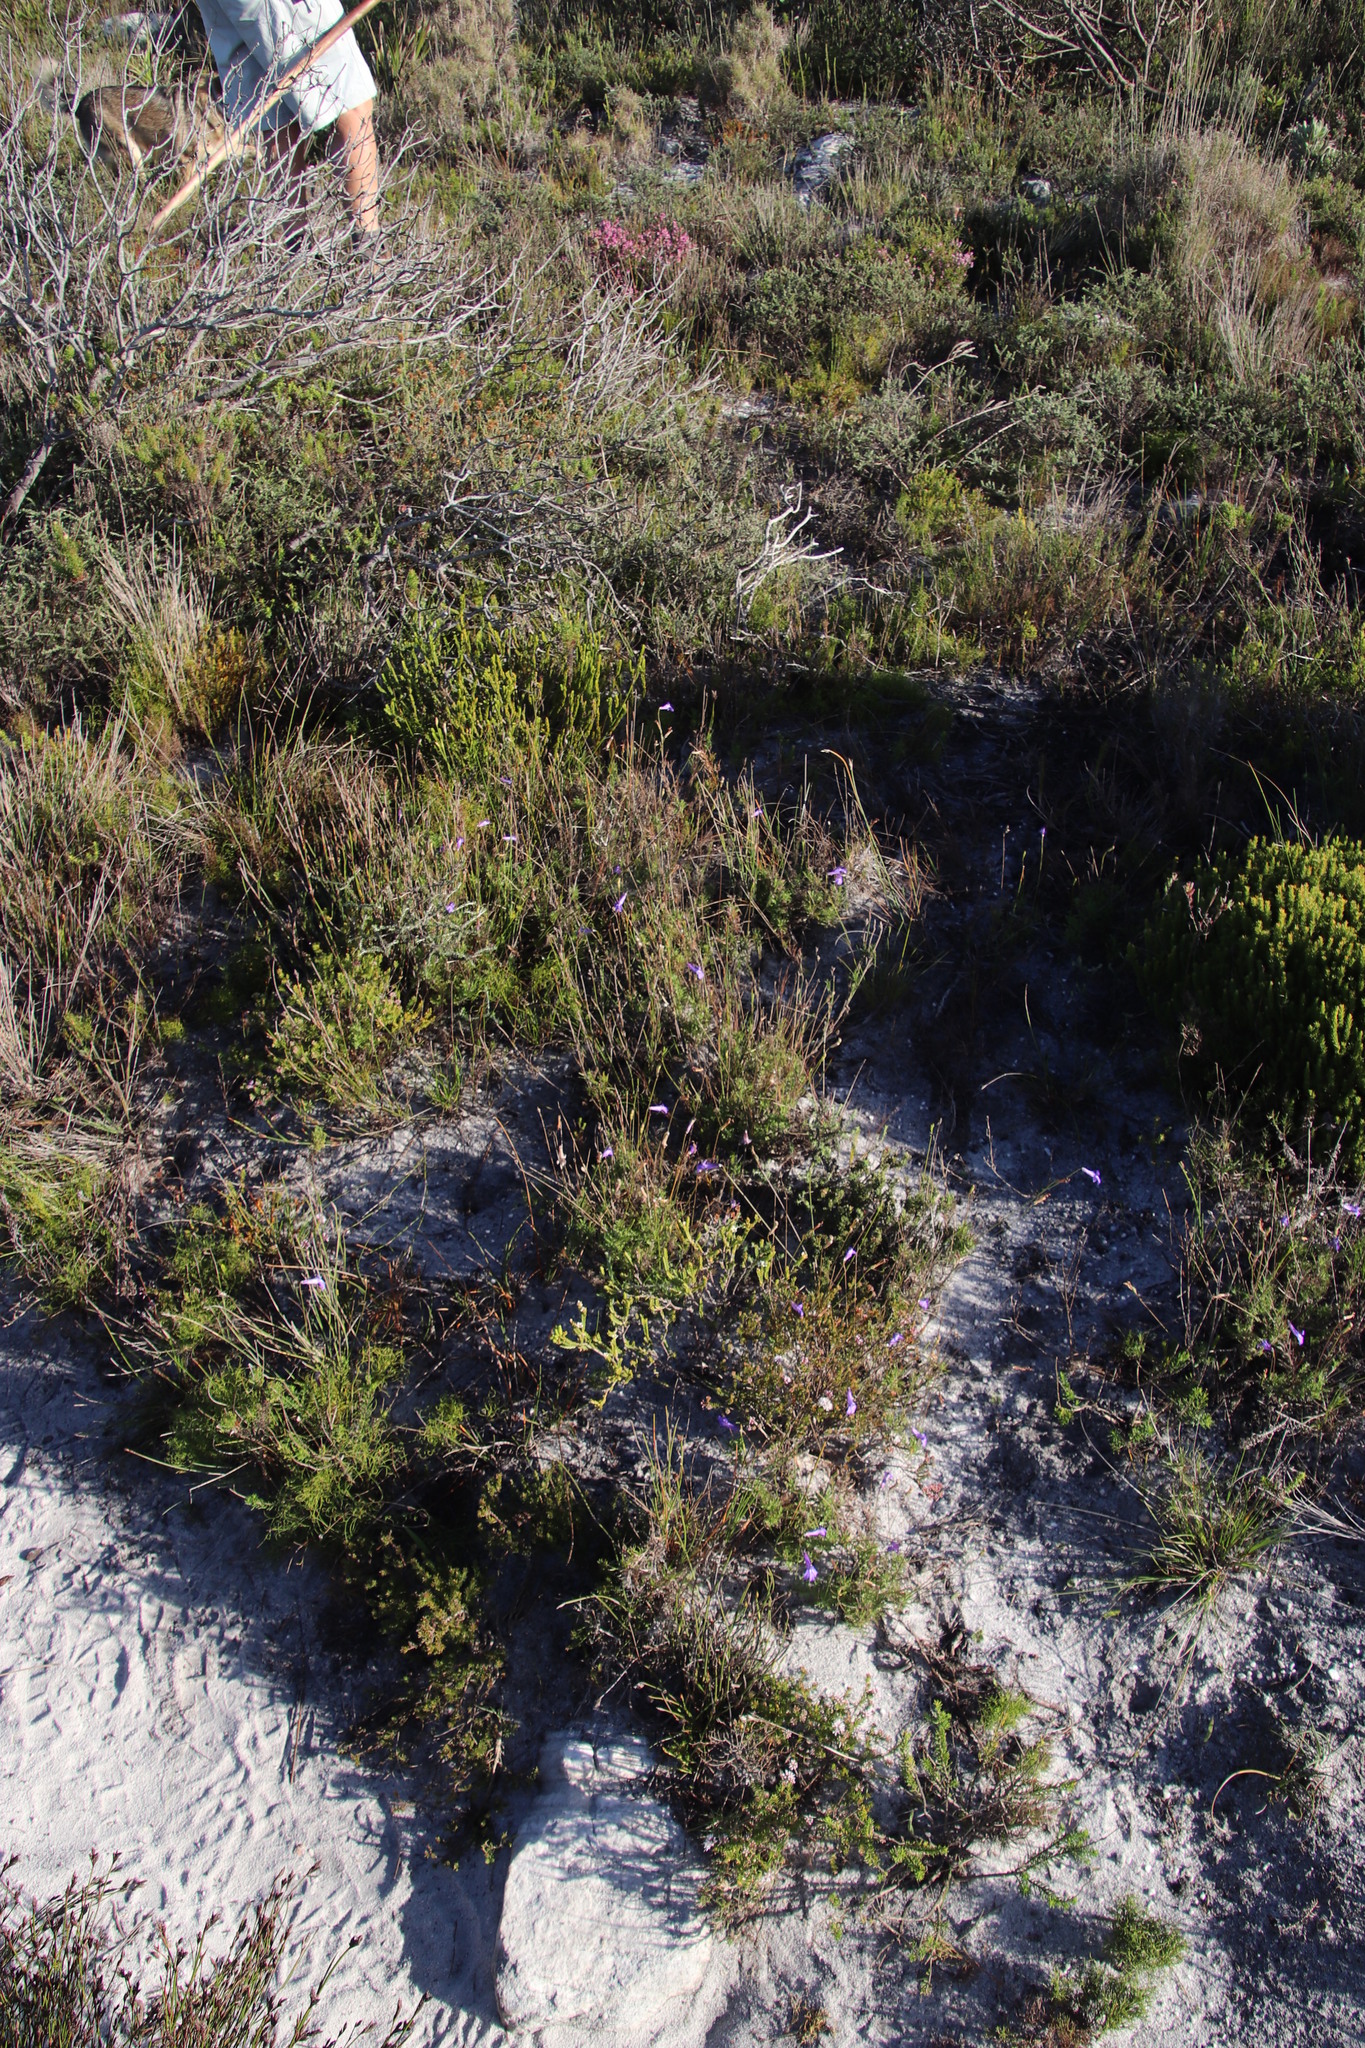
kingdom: Plantae
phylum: Tracheophyta
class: Magnoliopsida
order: Asterales
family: Campanulaceae
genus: Lobelia
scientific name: Lobelia coronopifolia
